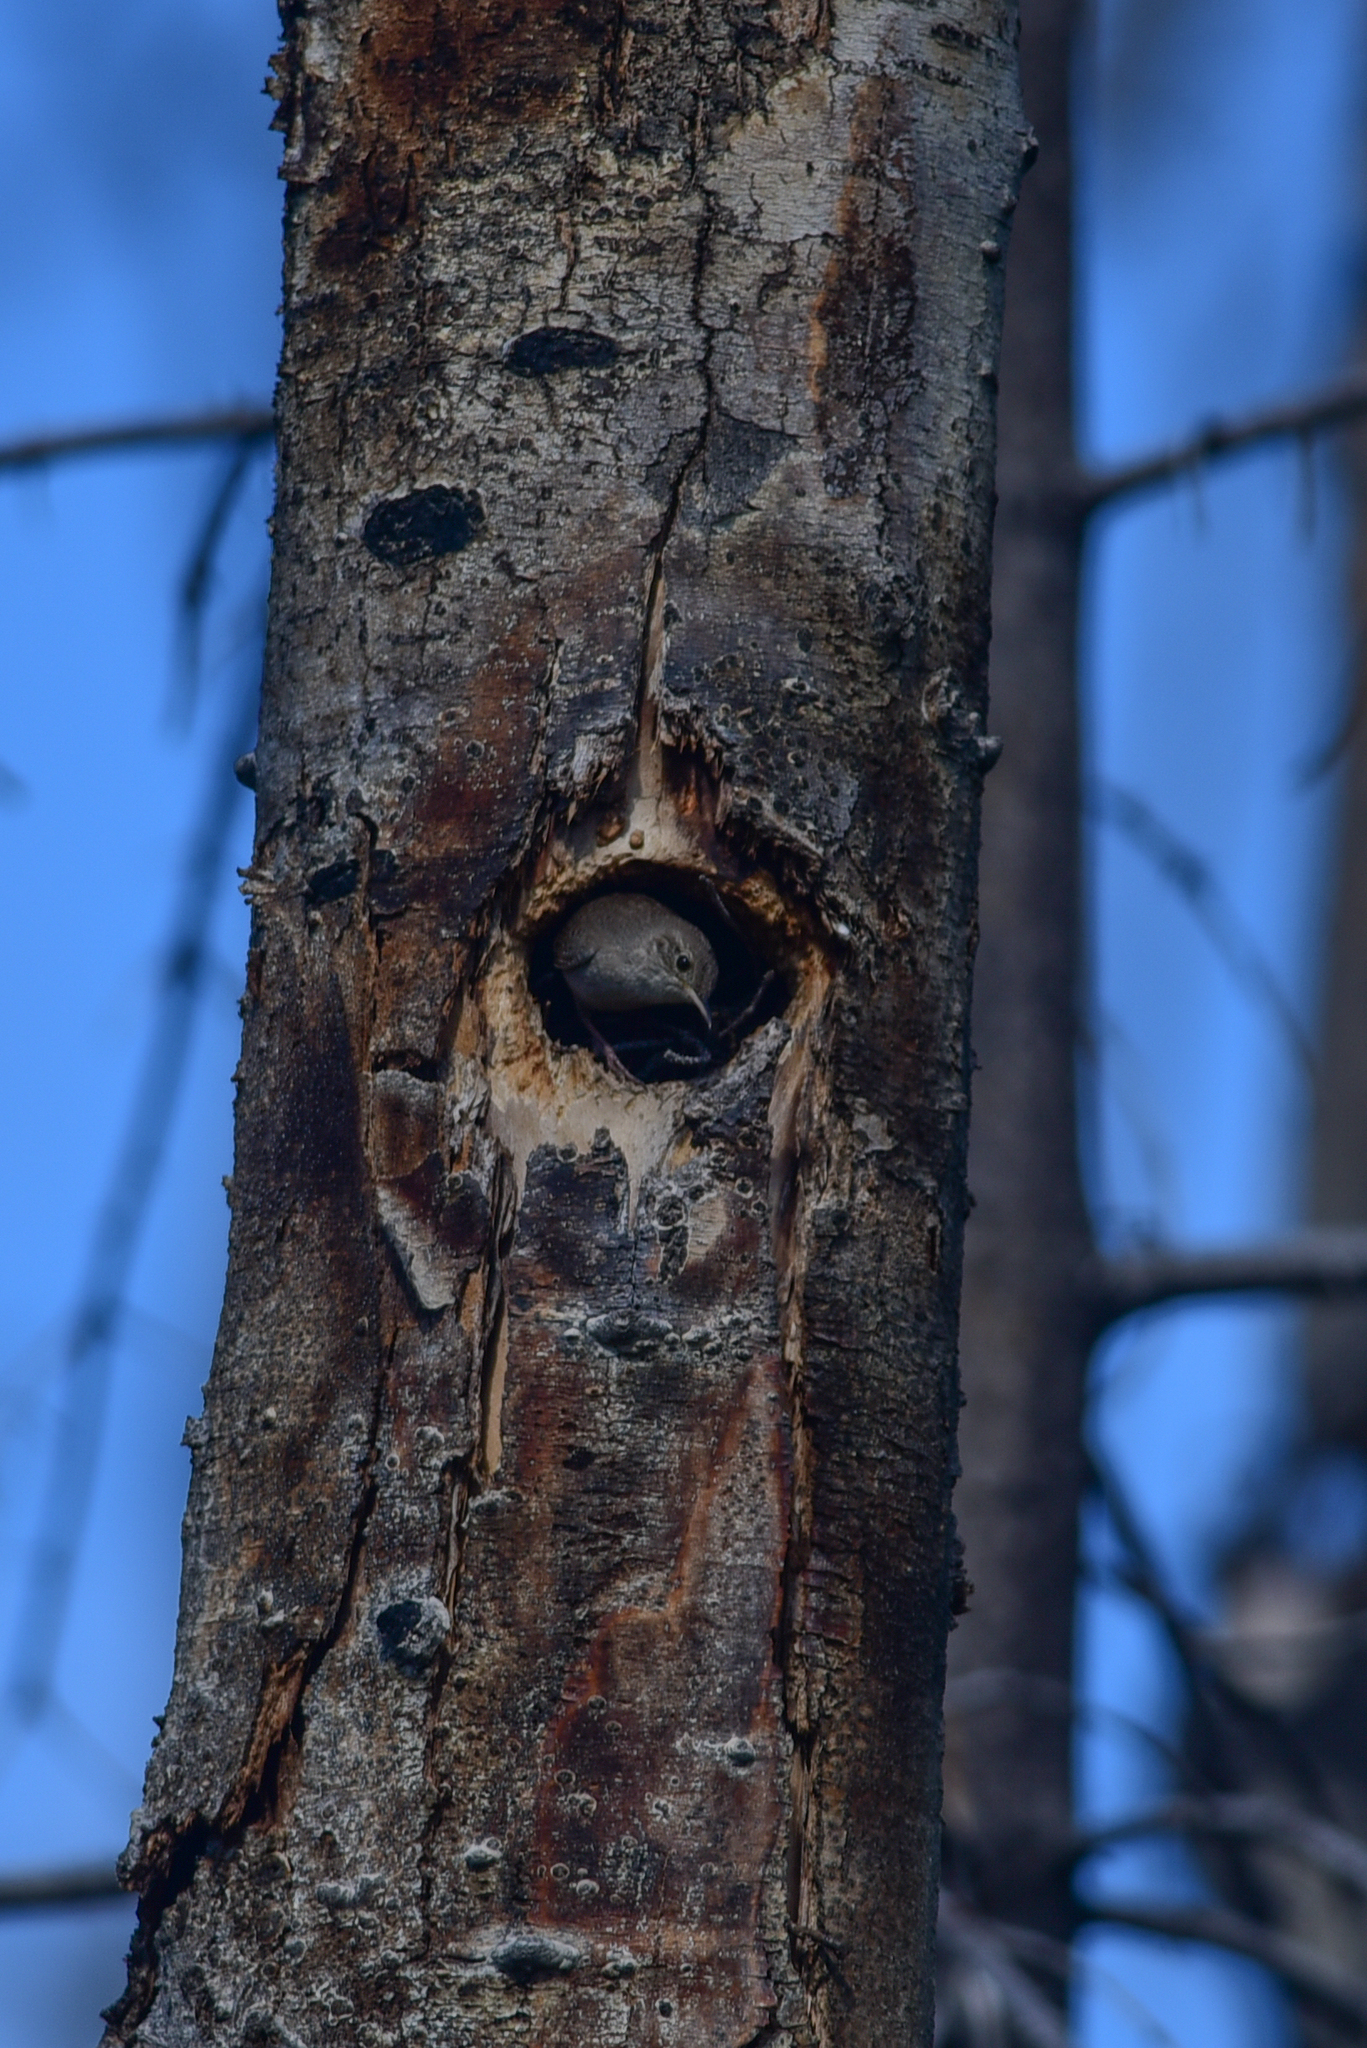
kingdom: Animalia
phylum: Chordata
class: Aves
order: Passeriformes
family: Troglodytidae
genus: Troglodytes
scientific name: Troglodytes aedon
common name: House wren
